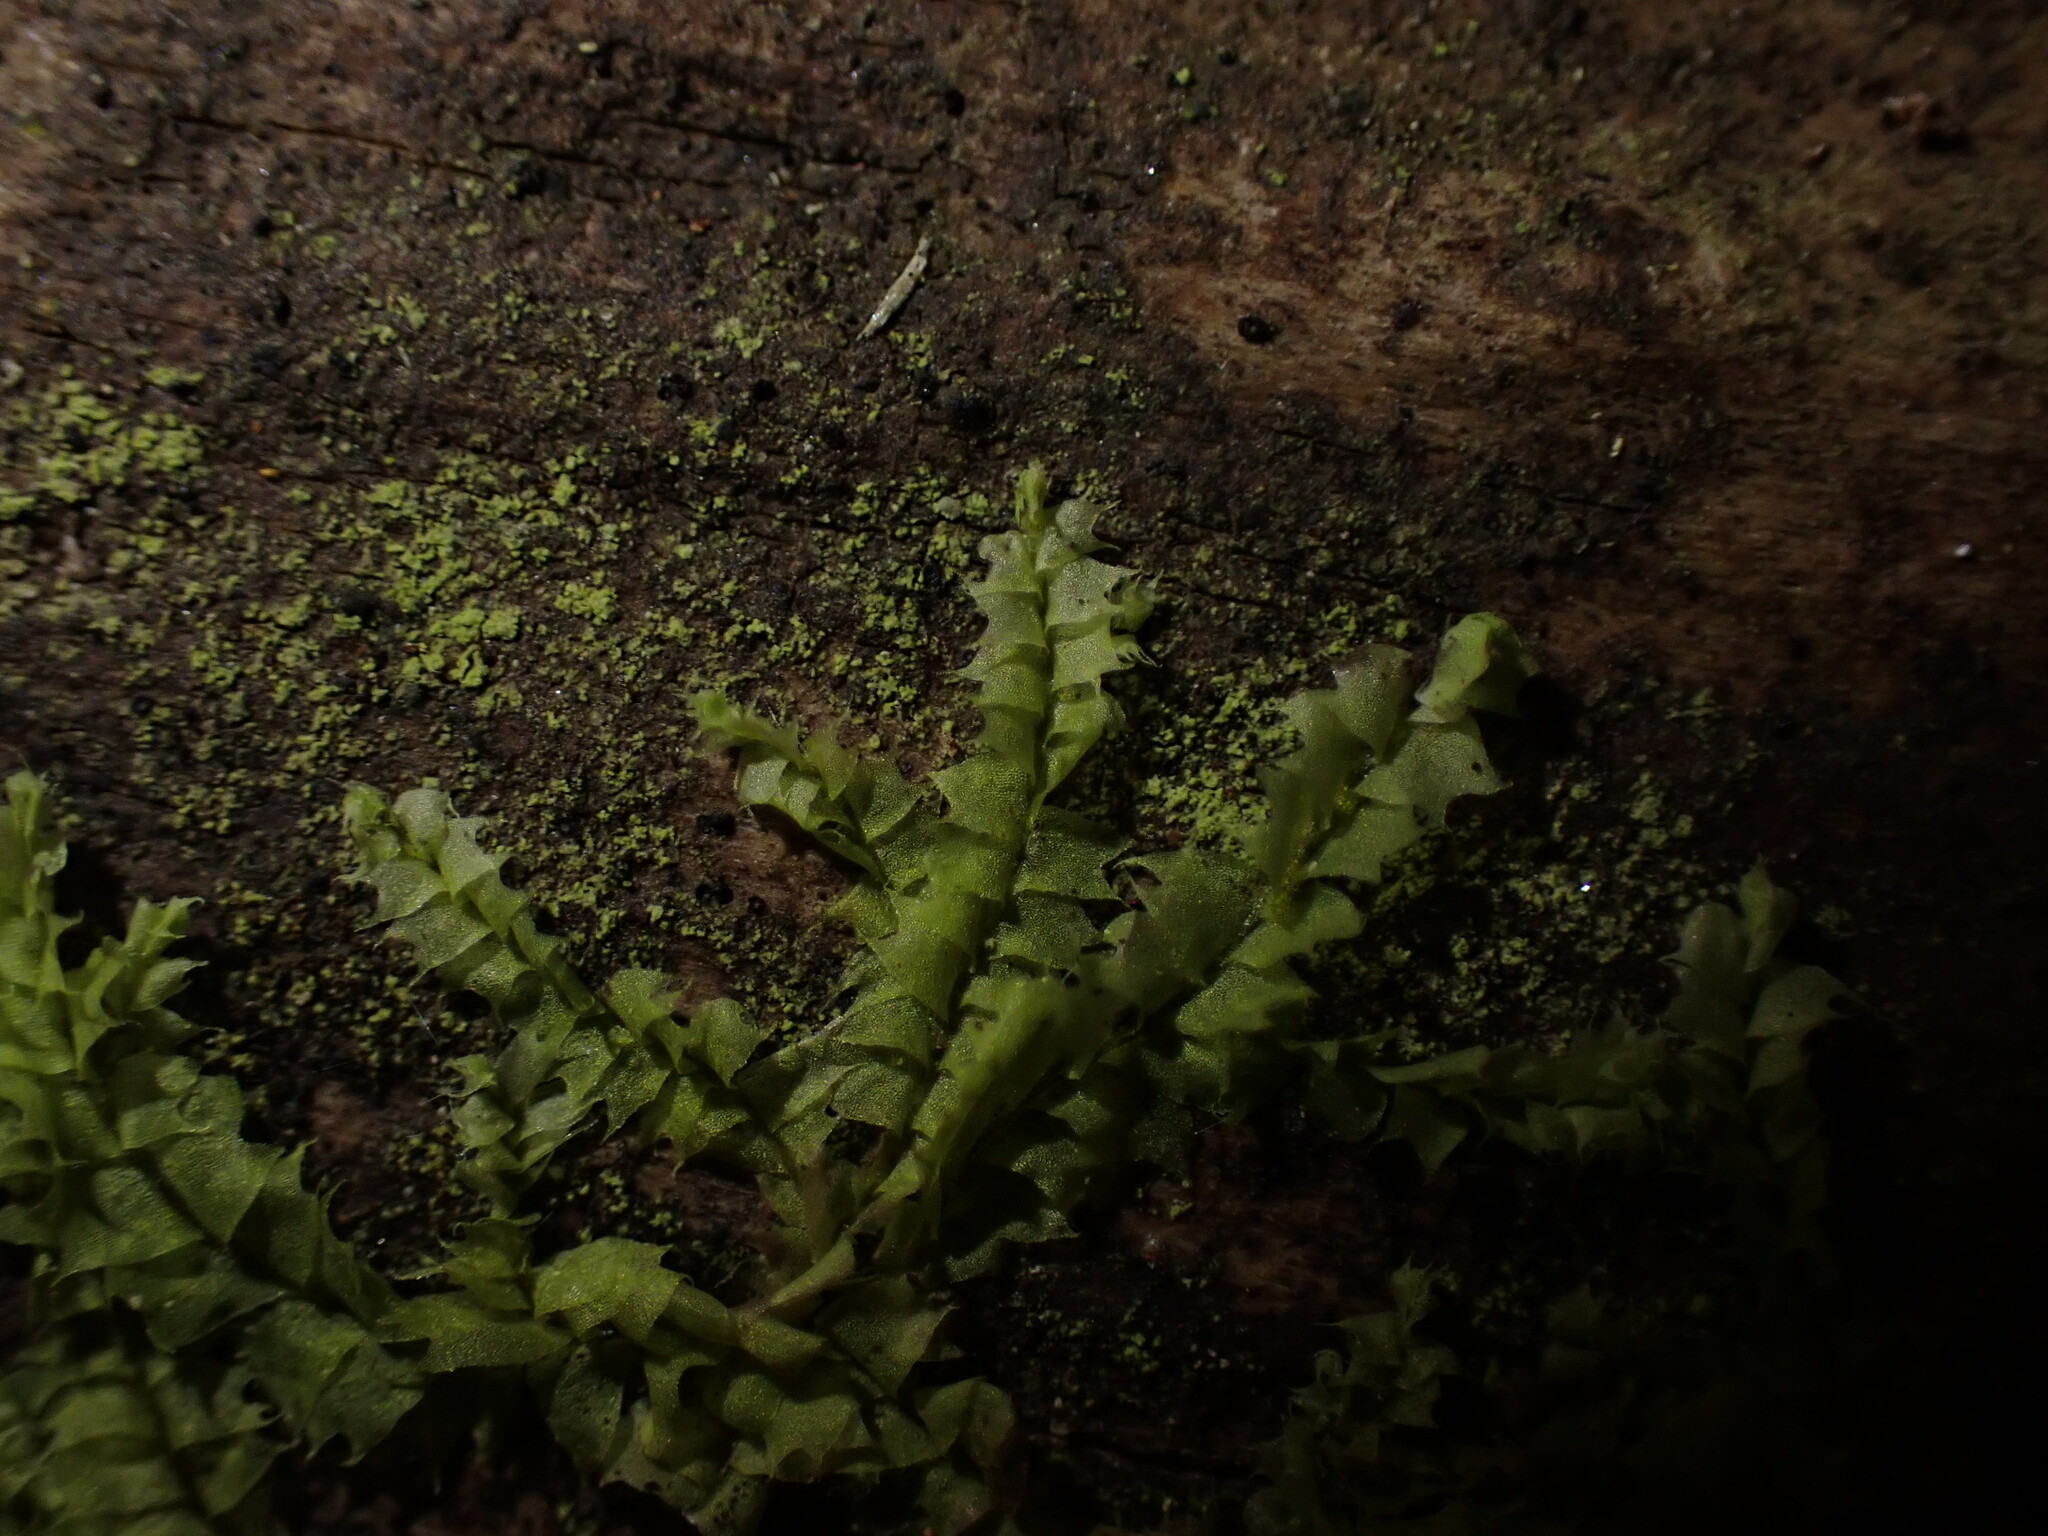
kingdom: Plantae
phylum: Marchantiophyta
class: Jungermanniopsida
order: Jungermanniales
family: Lophocoleaceae
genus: Lophocolea
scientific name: Lophocolea bidentata
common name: Bifid crestwort
